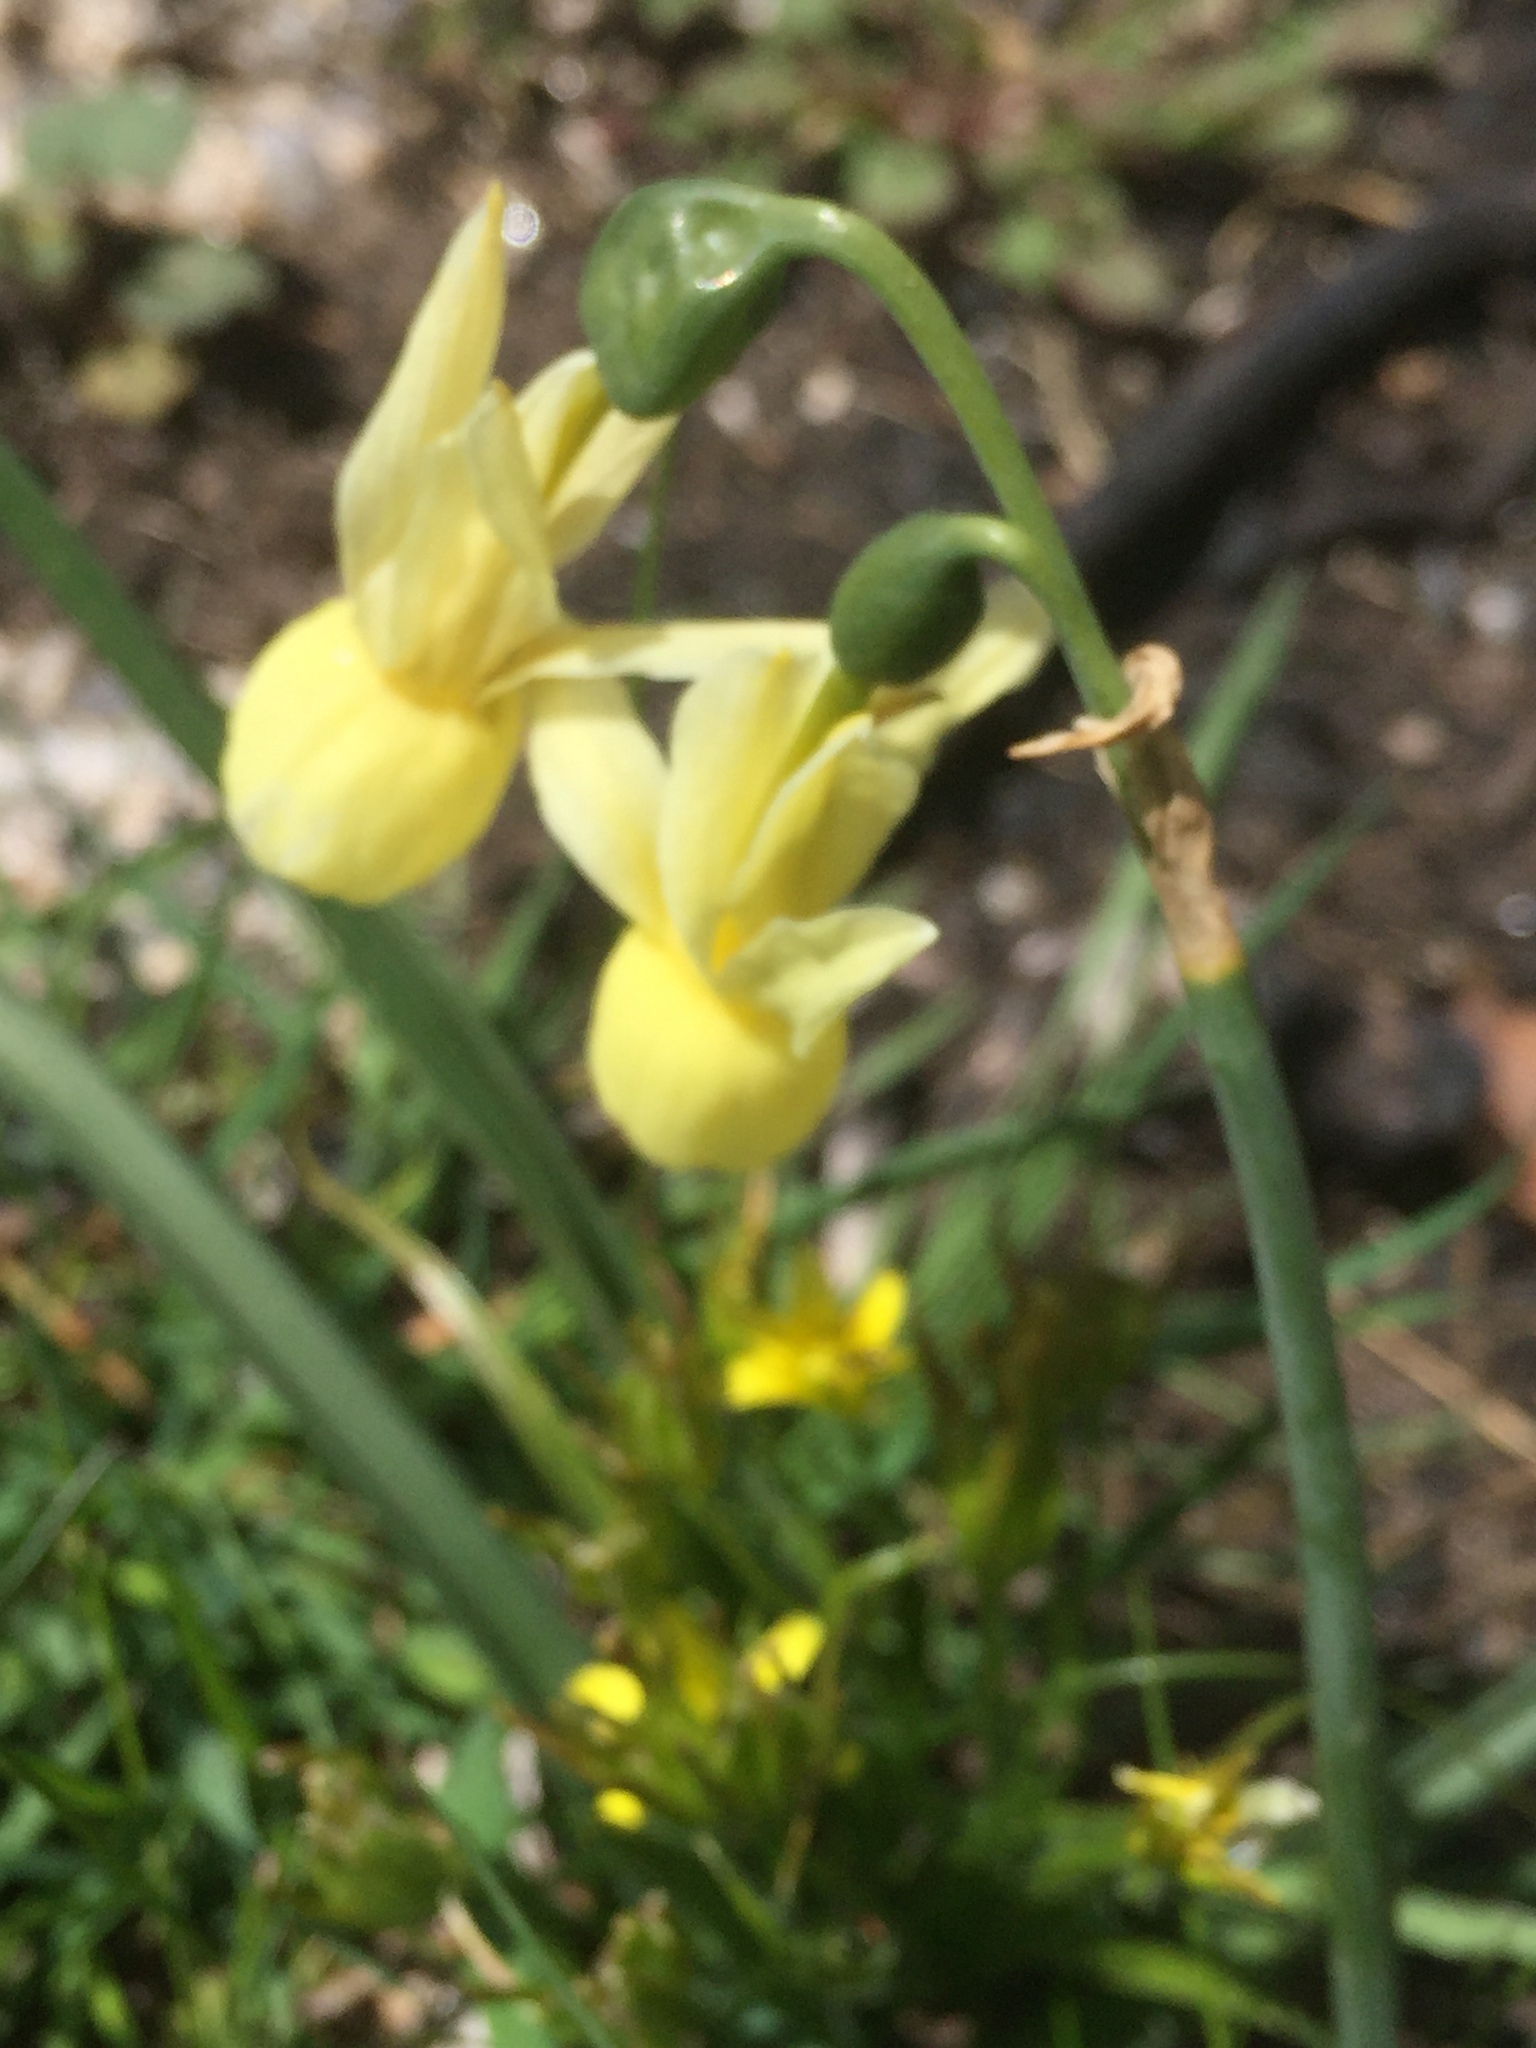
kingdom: Plantae
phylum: Tracheophyta
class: Liliopsida
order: Asparagales
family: Amaryllidaceae
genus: Narcissus
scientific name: Narcissus triandrus
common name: Angel's-tears
